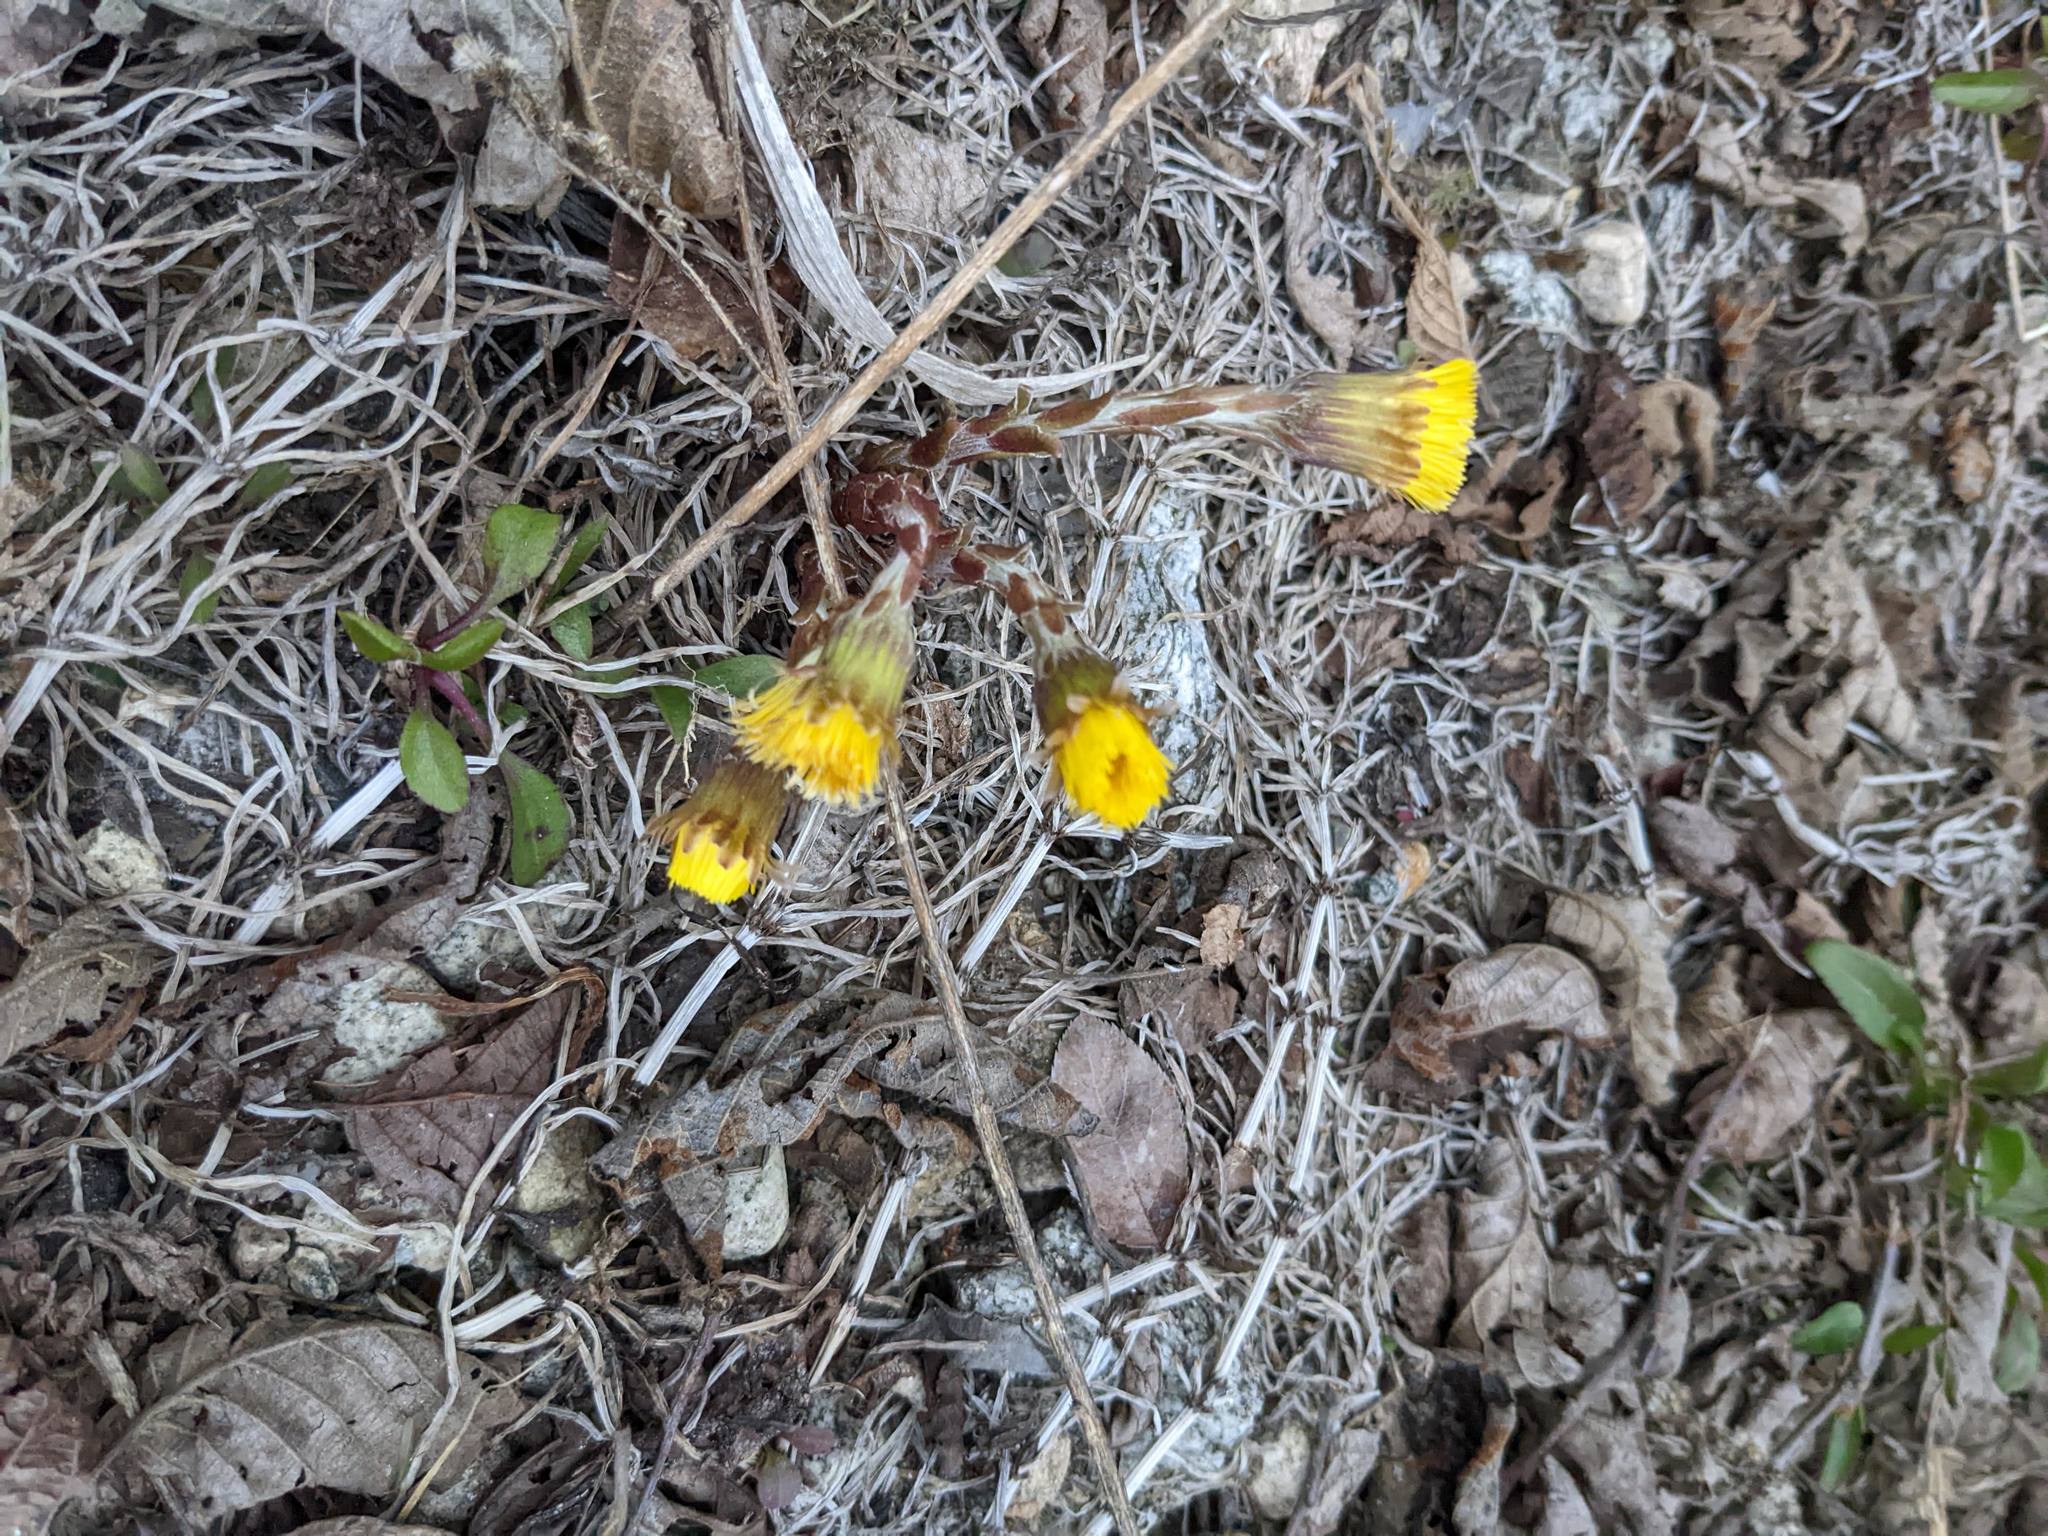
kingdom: Plantae
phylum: Tracheophyta
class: Magnoliopsida
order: Asterales
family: Asteraceae
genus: Tussilago
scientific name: Tussilago farfara
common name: Coltsfoot
